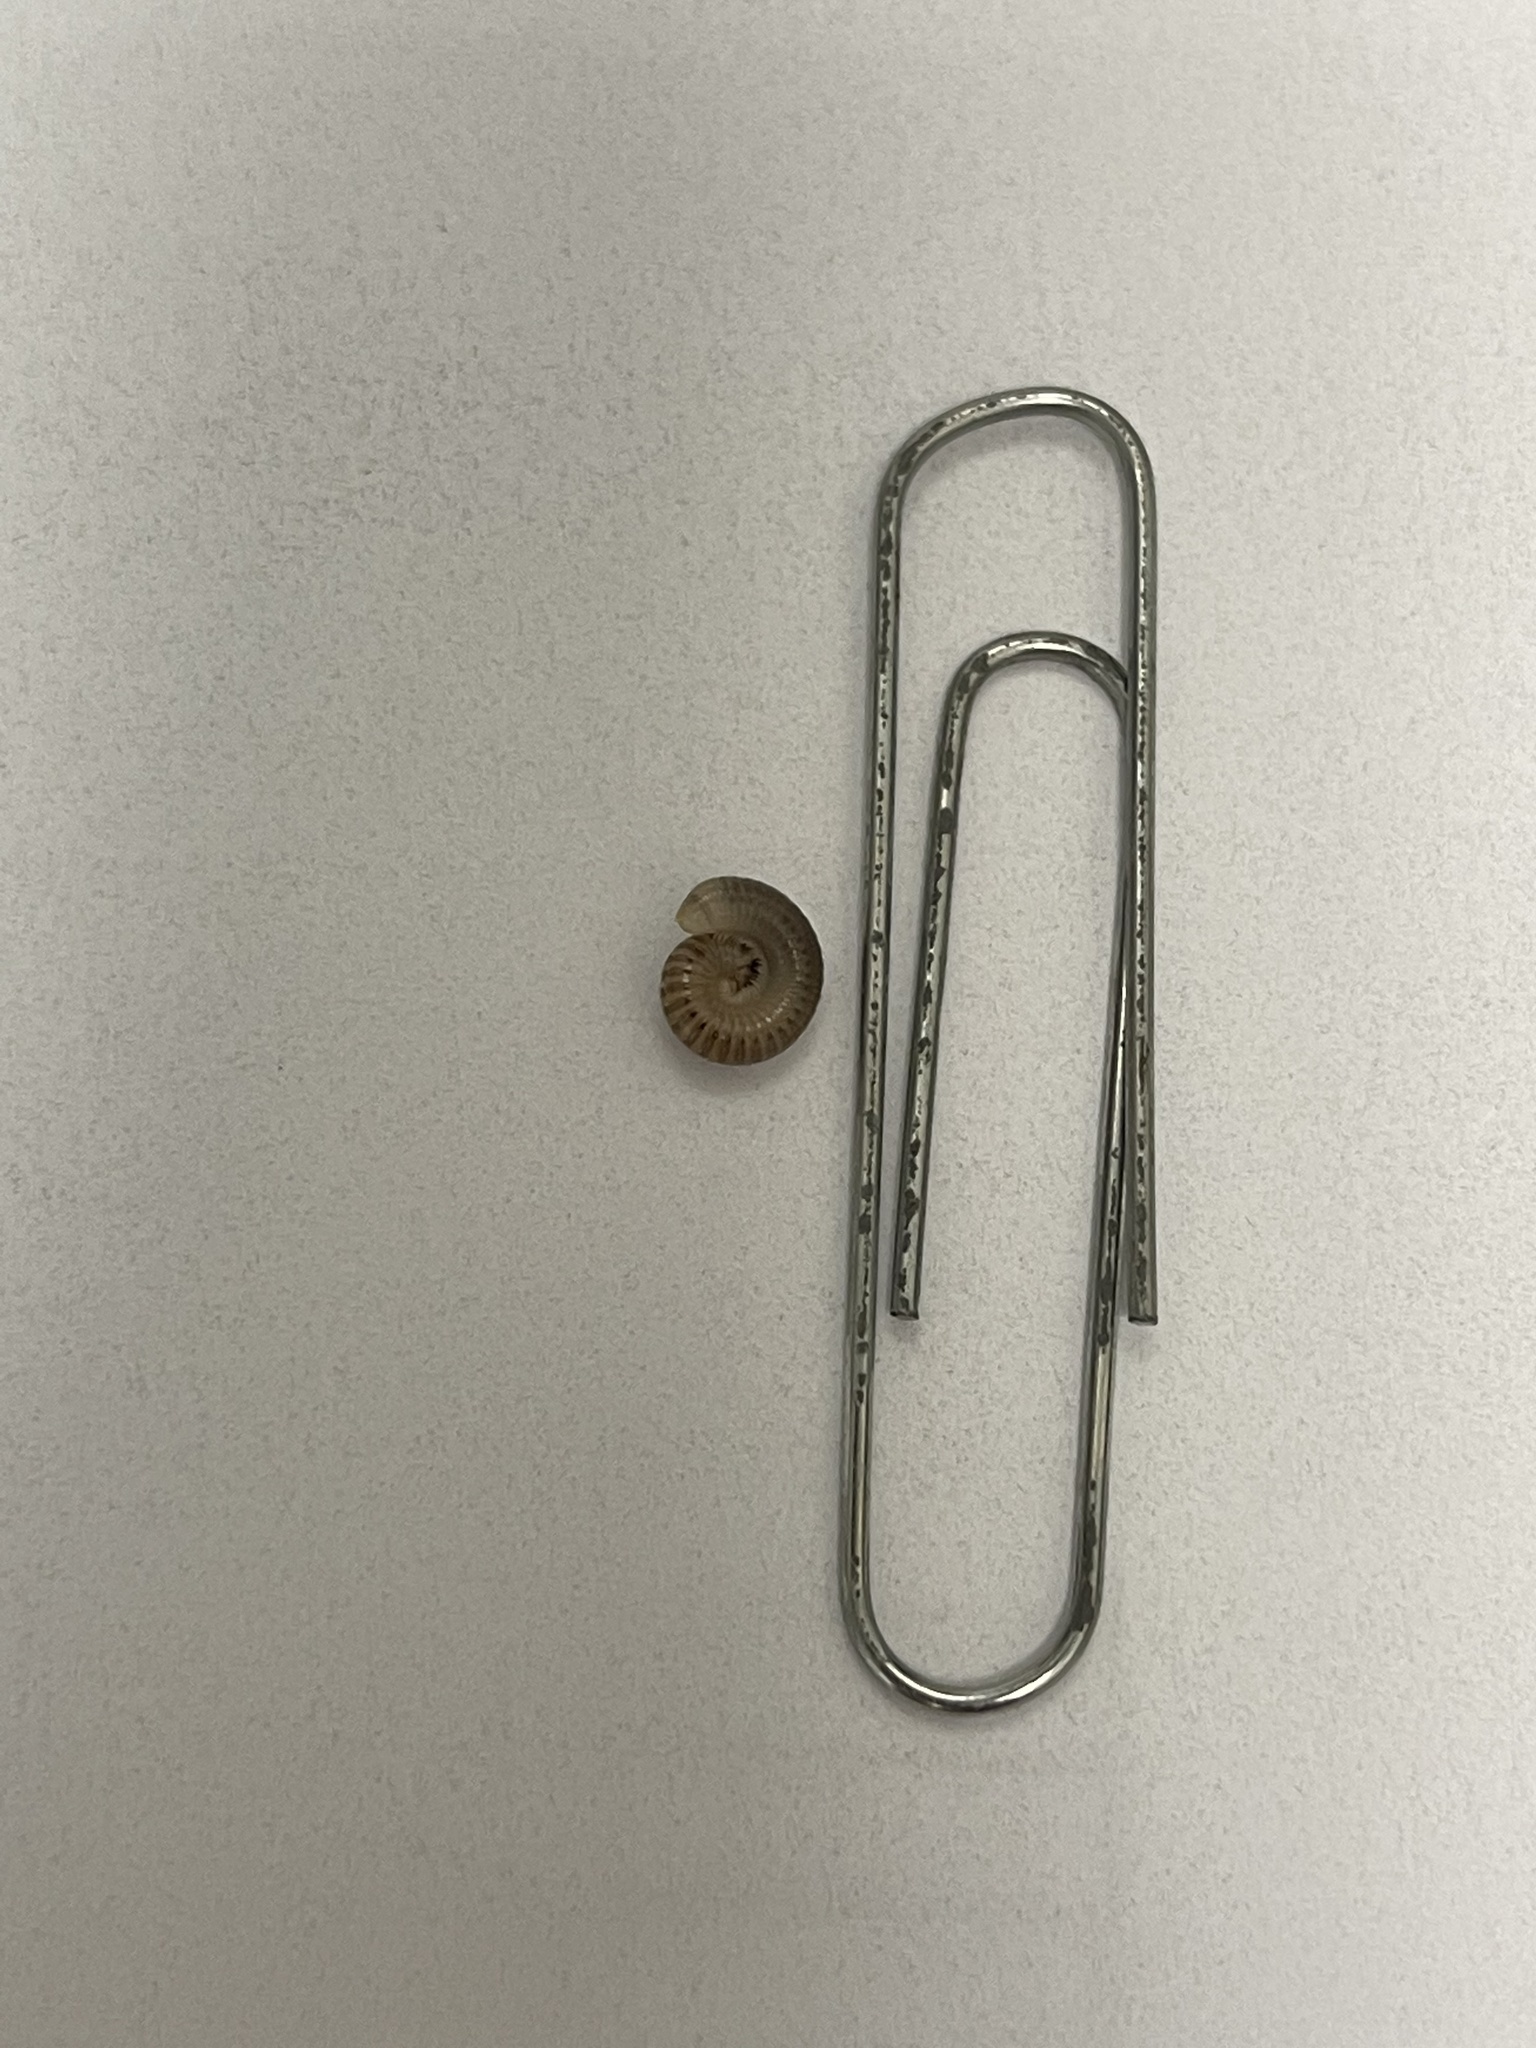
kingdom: Animalia
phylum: Arthropoda
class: Diplopoda
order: Spirobolida
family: Rhinocricidae
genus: Anadenobolus
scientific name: Anadenobolus monilicornis
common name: Caribbean millipede
